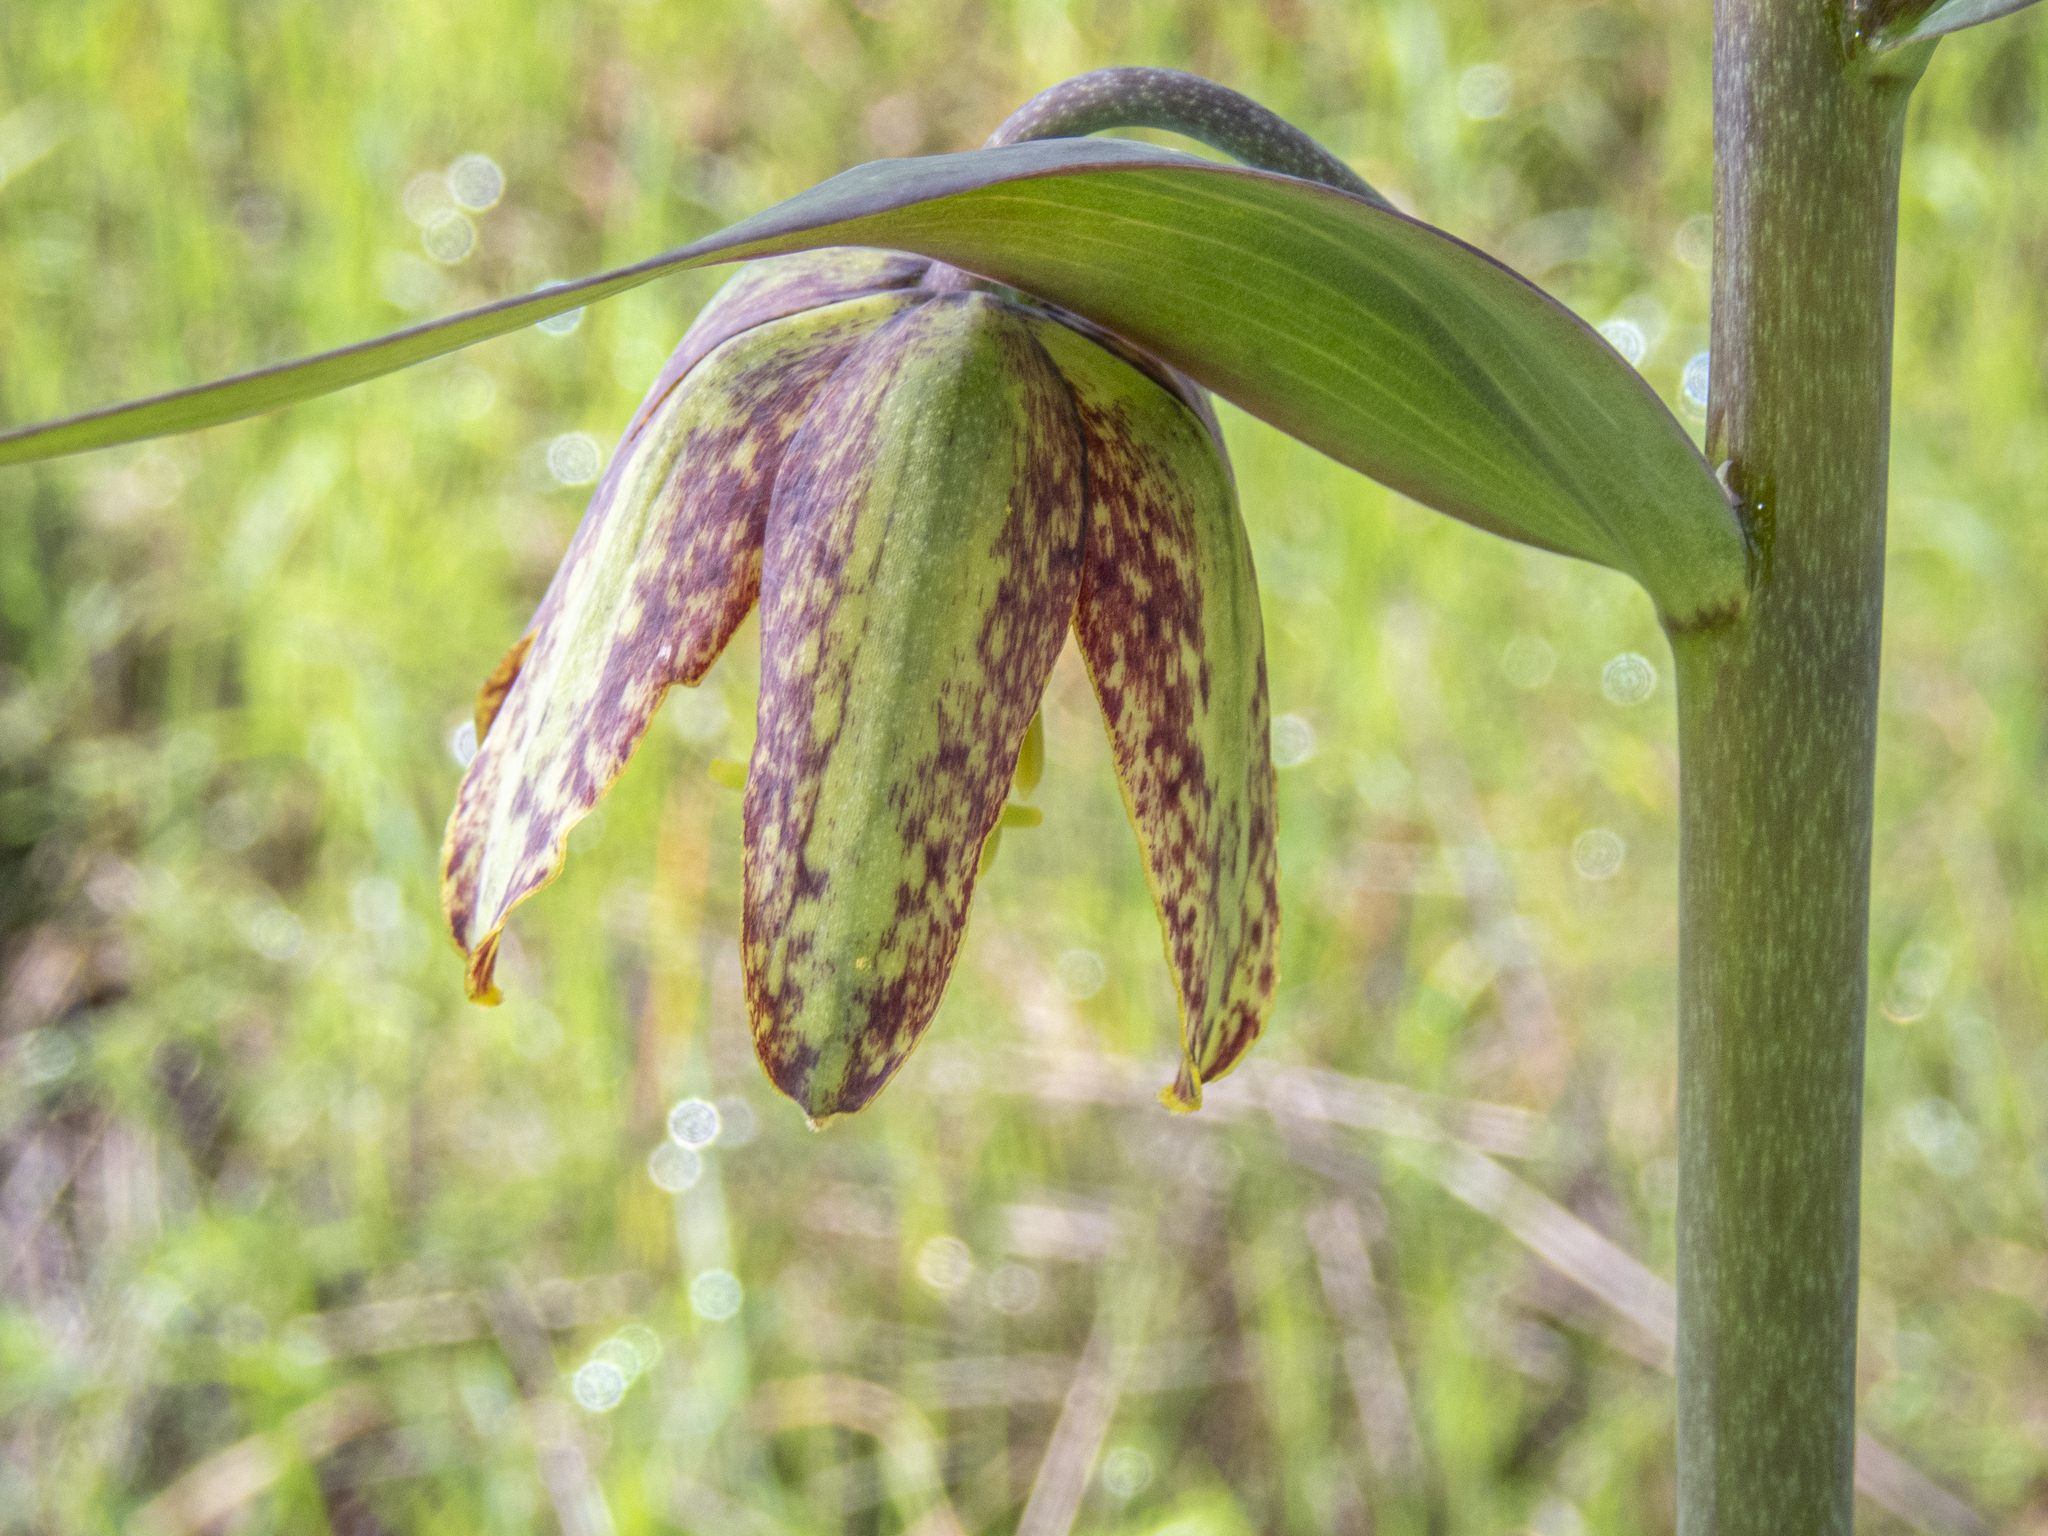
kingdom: Plantae
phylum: Tracheophyta
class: Liliopsida
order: Liliales
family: Liliaceae
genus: Fritillaria
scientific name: Fritillaria affinis
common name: Ojai fritillary
